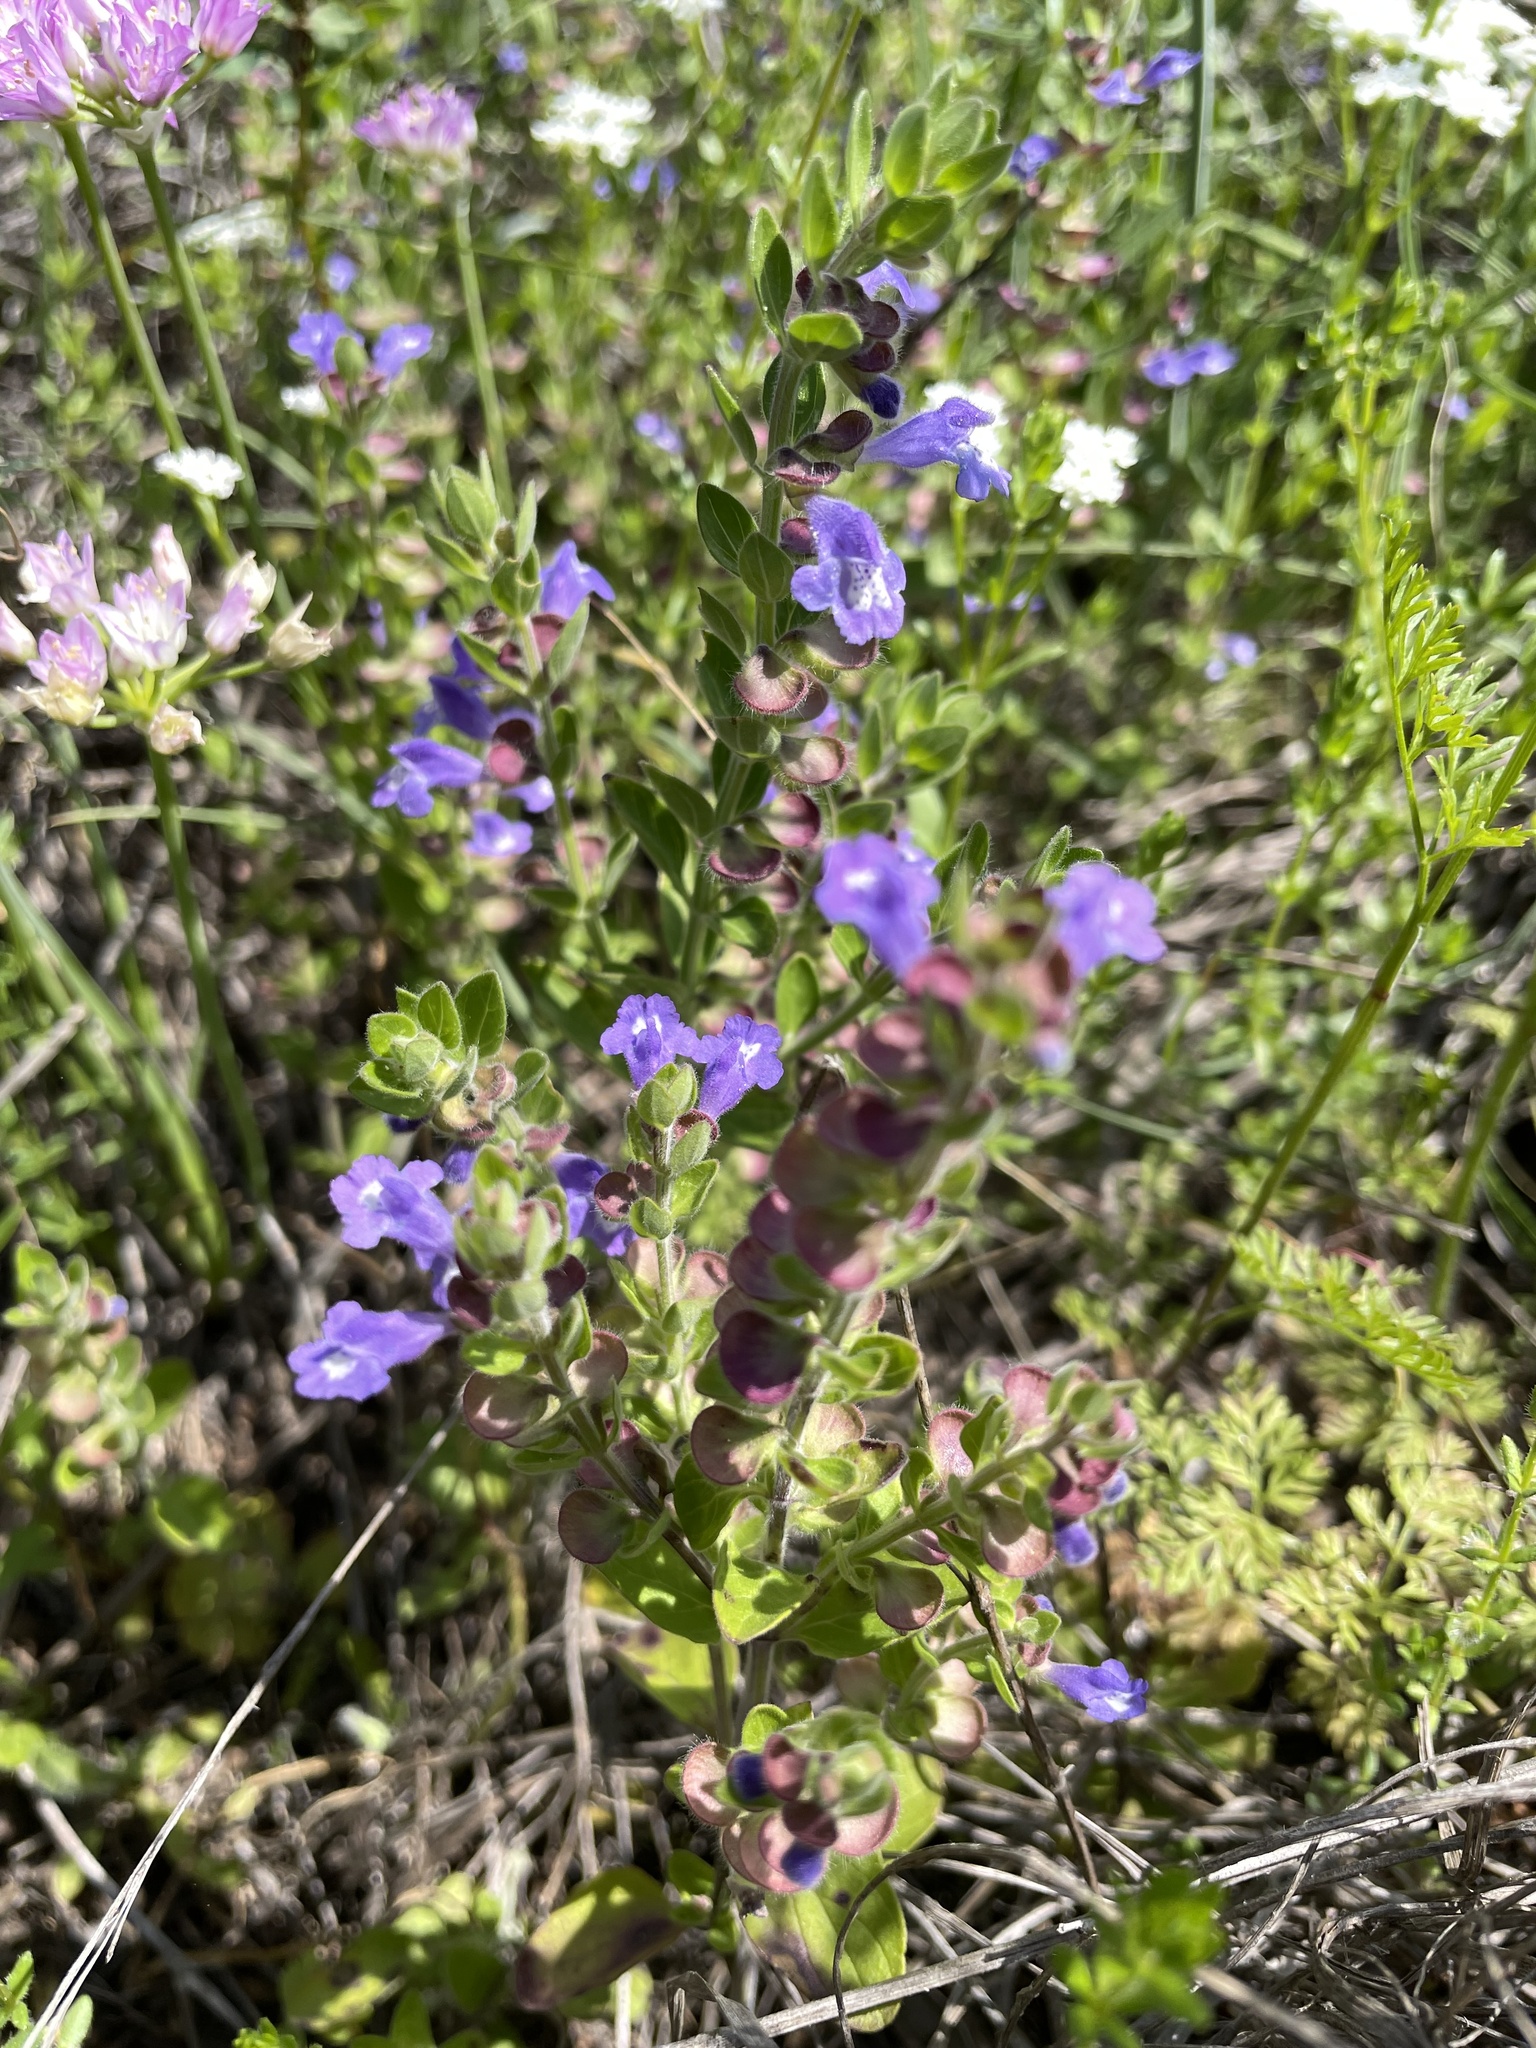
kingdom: Plantae
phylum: Tracheophyta
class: Magnoliopsida
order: Lamiales
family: Lamiaceae
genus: Scutellaria
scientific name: Scutellaria drummondii
